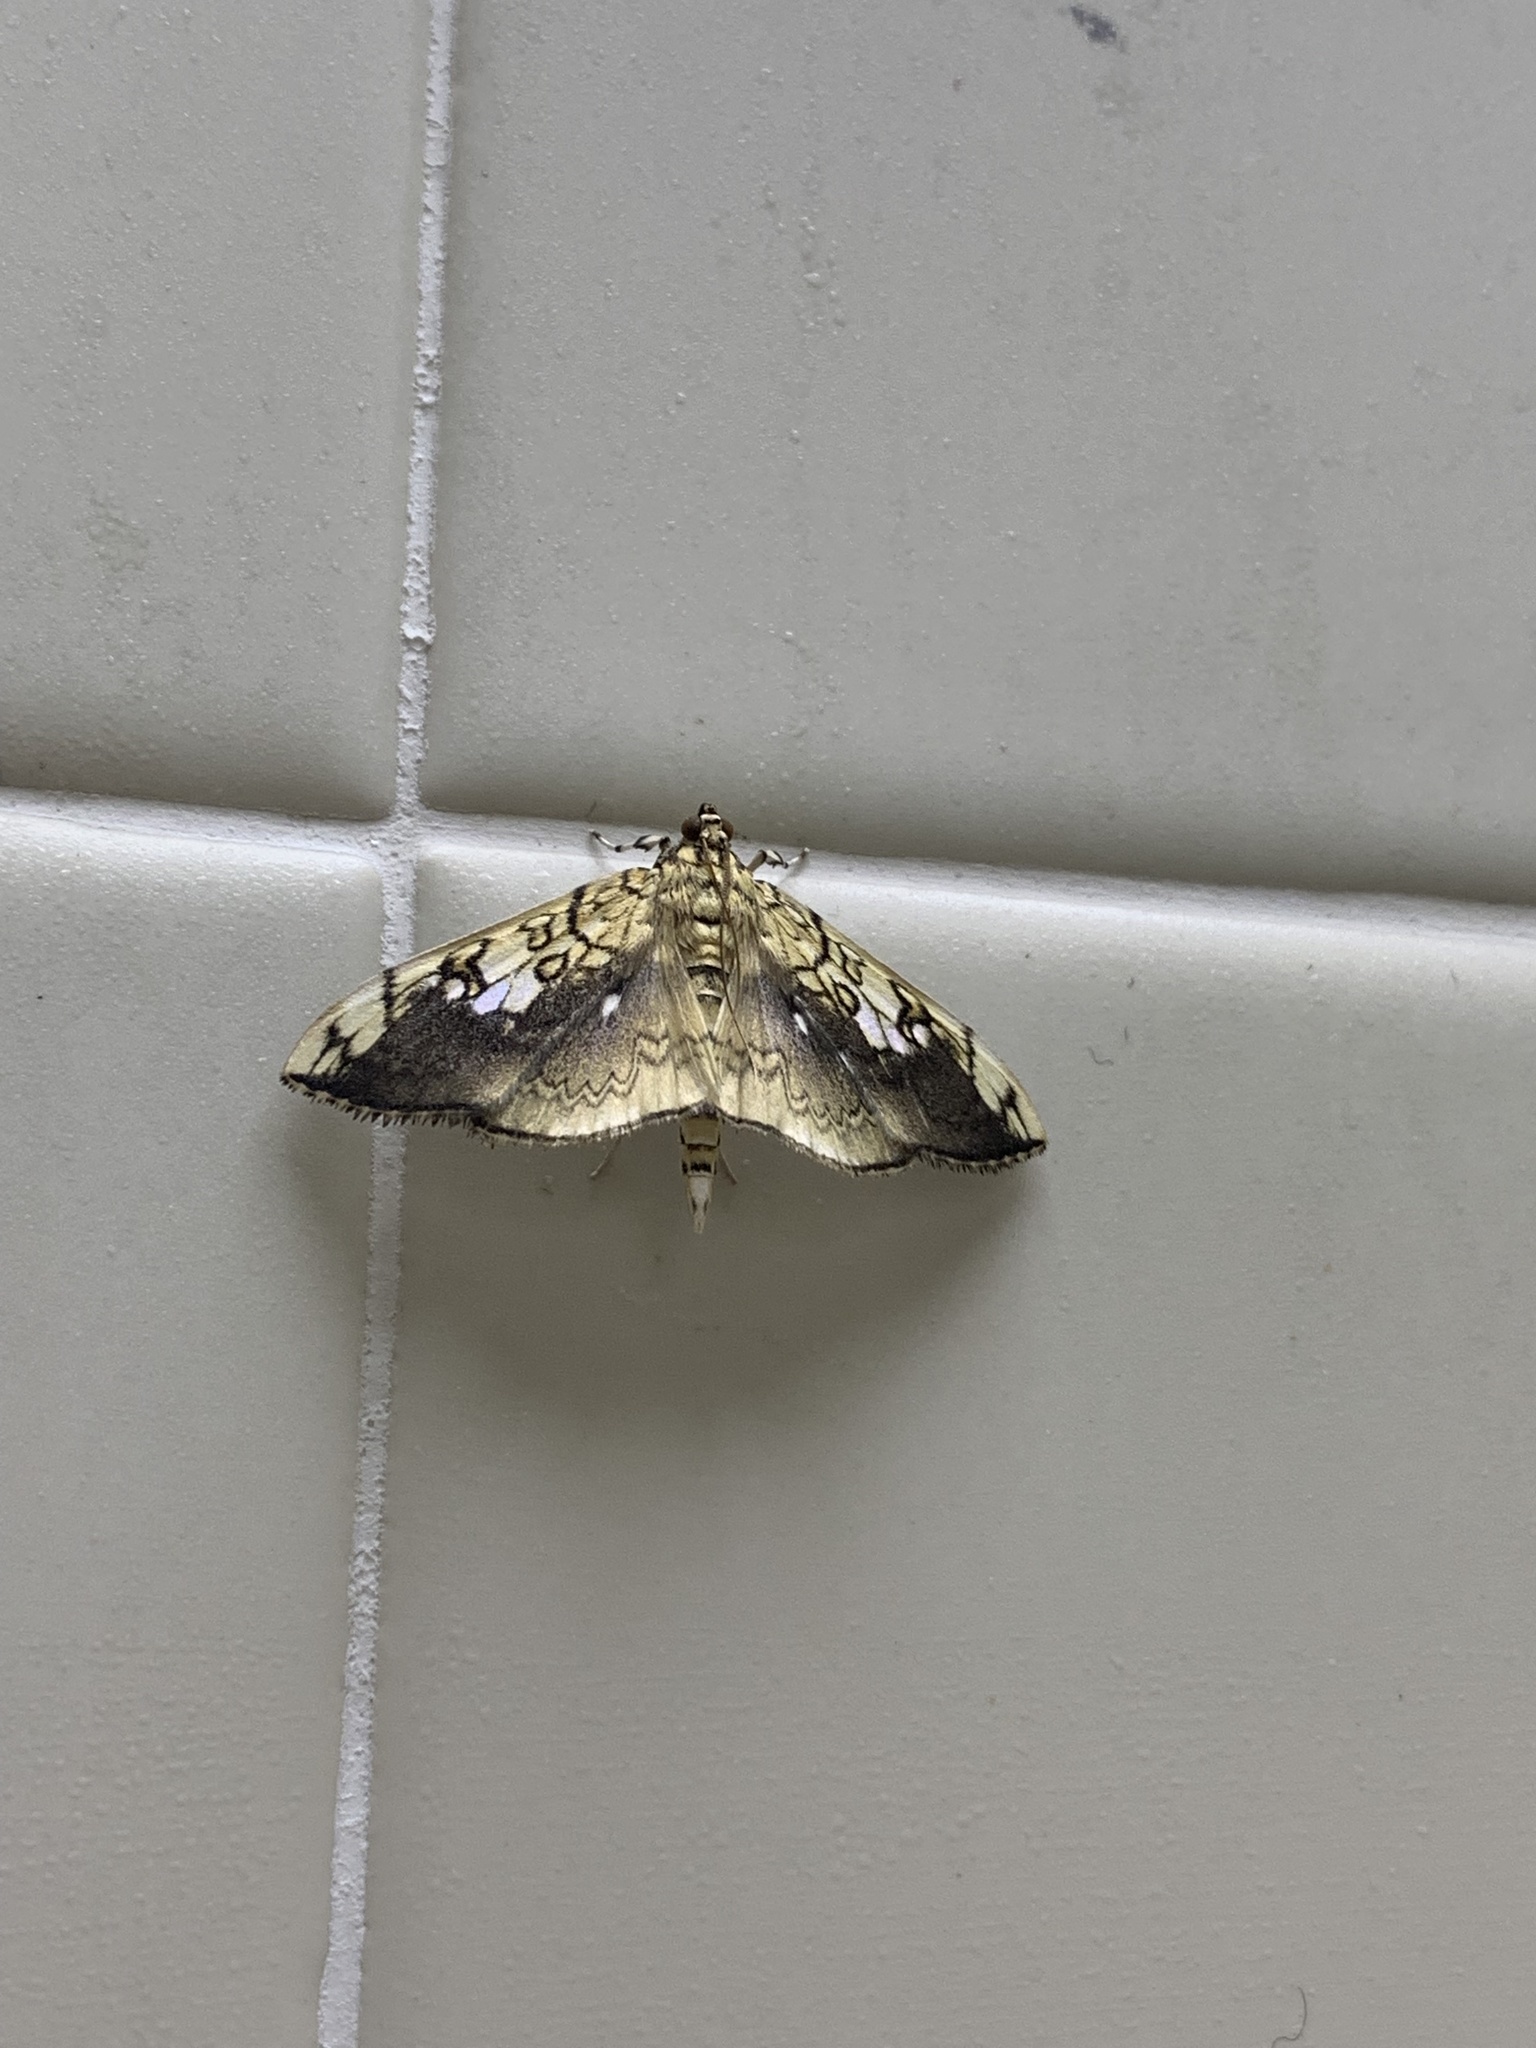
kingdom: Animalia
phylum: Arthropoda
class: Insecta
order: Lepidoptera
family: Crambidae
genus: Pantographa
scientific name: Pantographa limata
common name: Basswood leafroller moth
